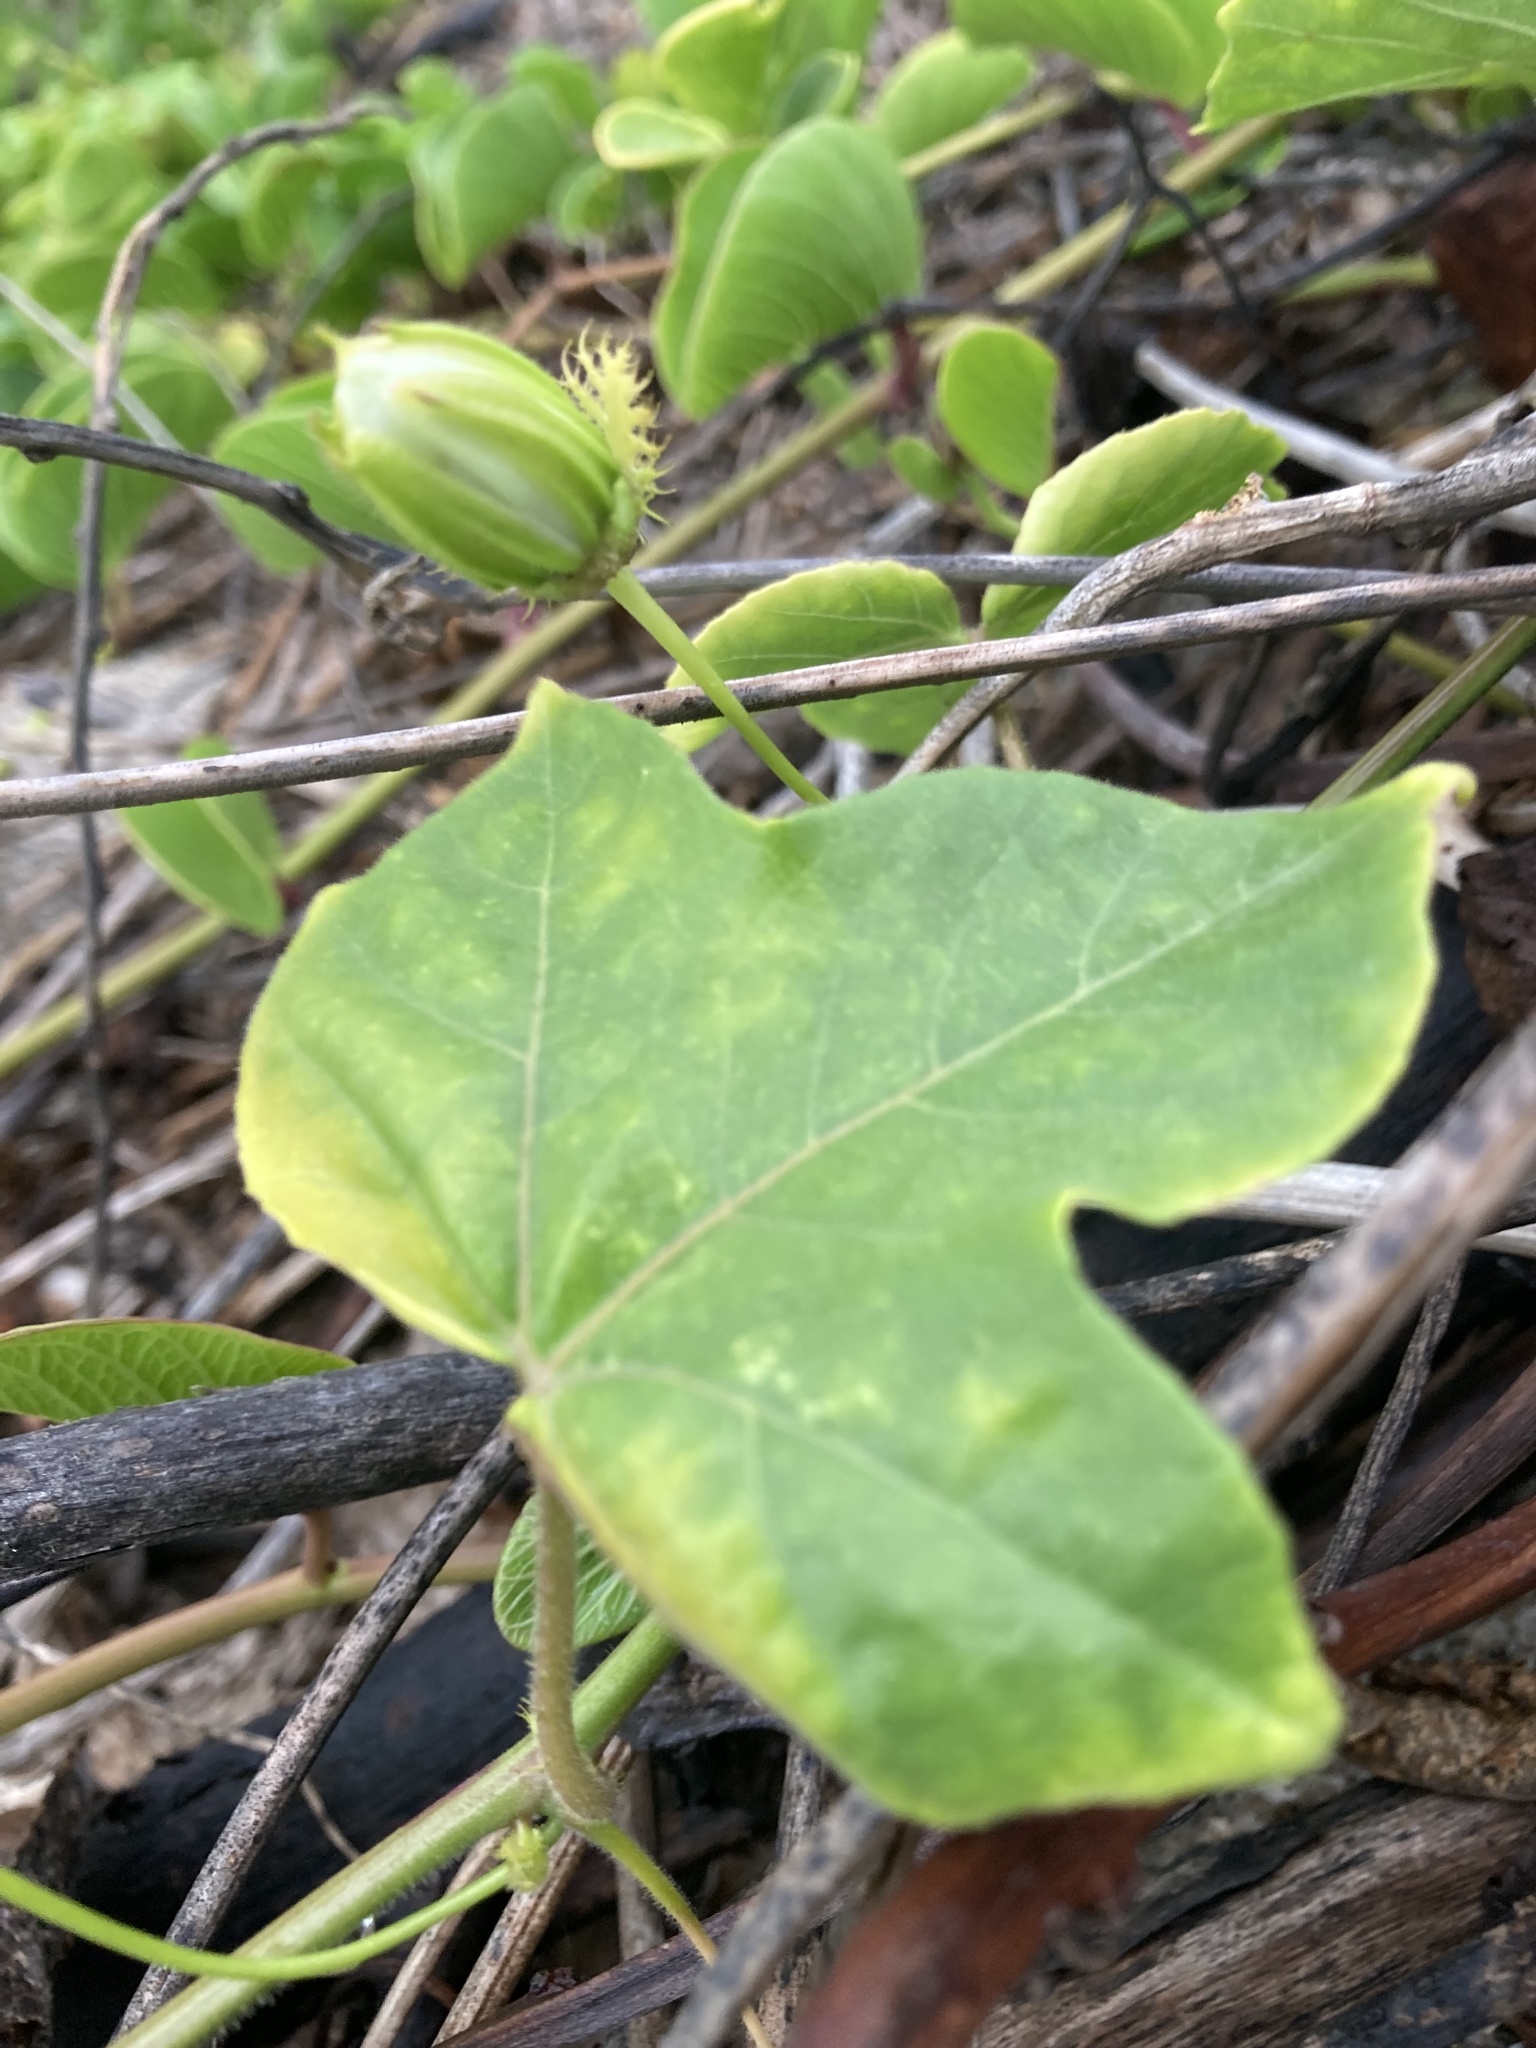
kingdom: Plantae
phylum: Tracheophyta
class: Magnoliopsida
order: Malpighiales
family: Passifloraceae
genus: Passiflora
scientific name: Passiflora foetida
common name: Fetid passionflower
